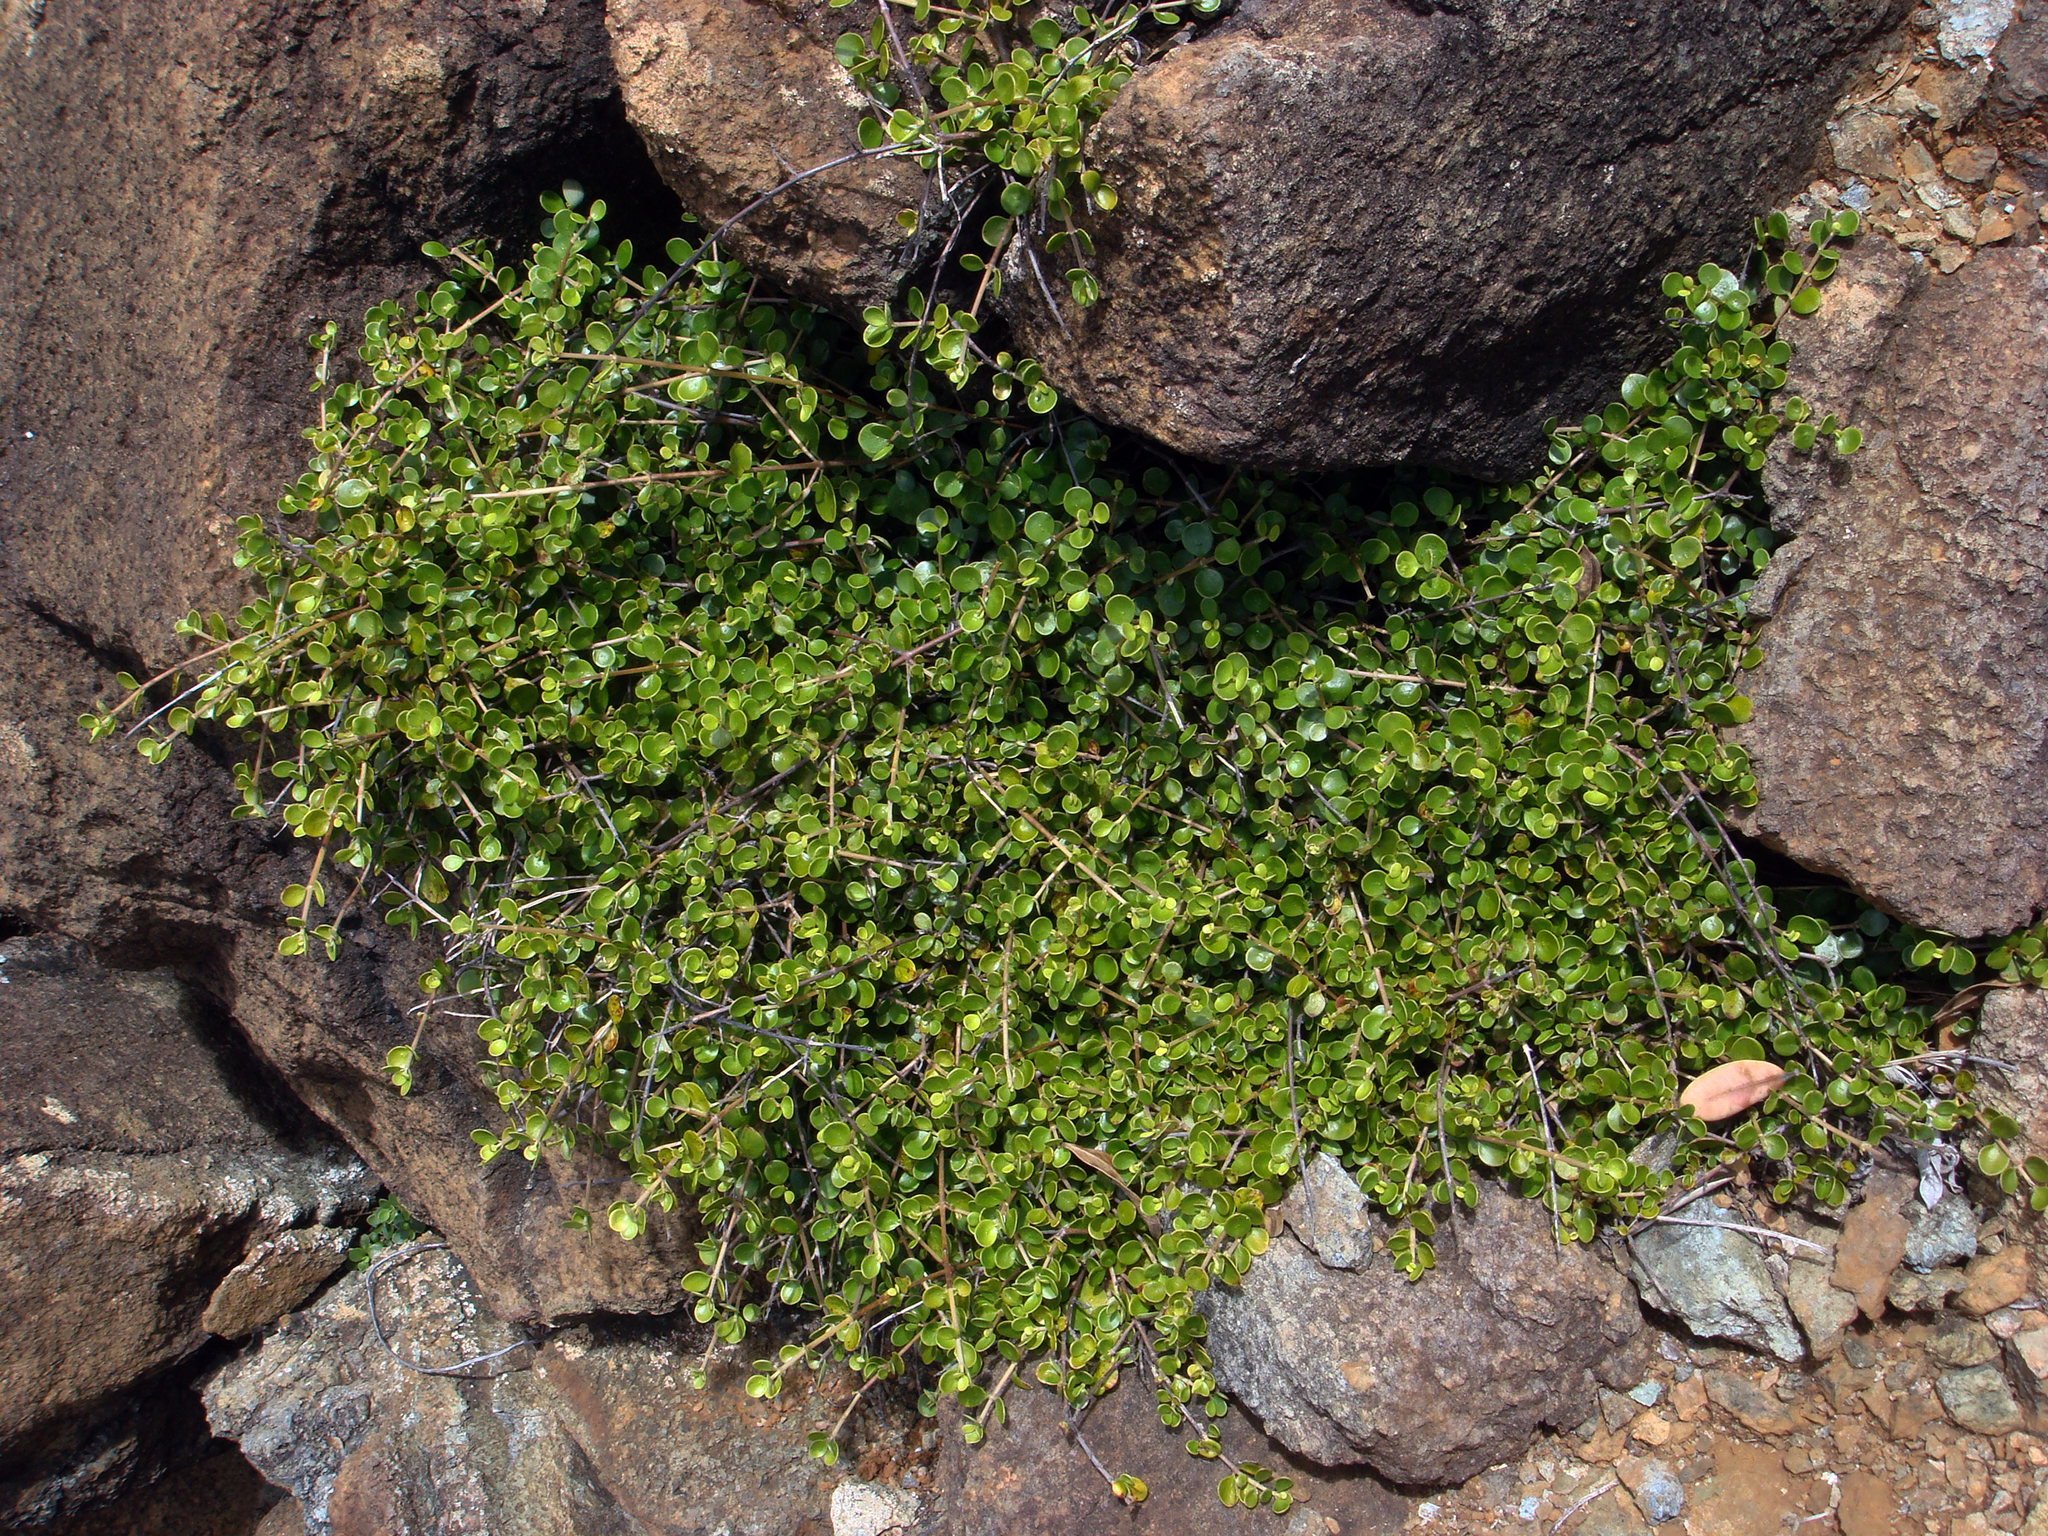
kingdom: Plantae
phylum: Tracheophyta
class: Magnoliopsida
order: Gentianales
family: Rubiaceae
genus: Coprosma
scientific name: Coprosma neglecta
